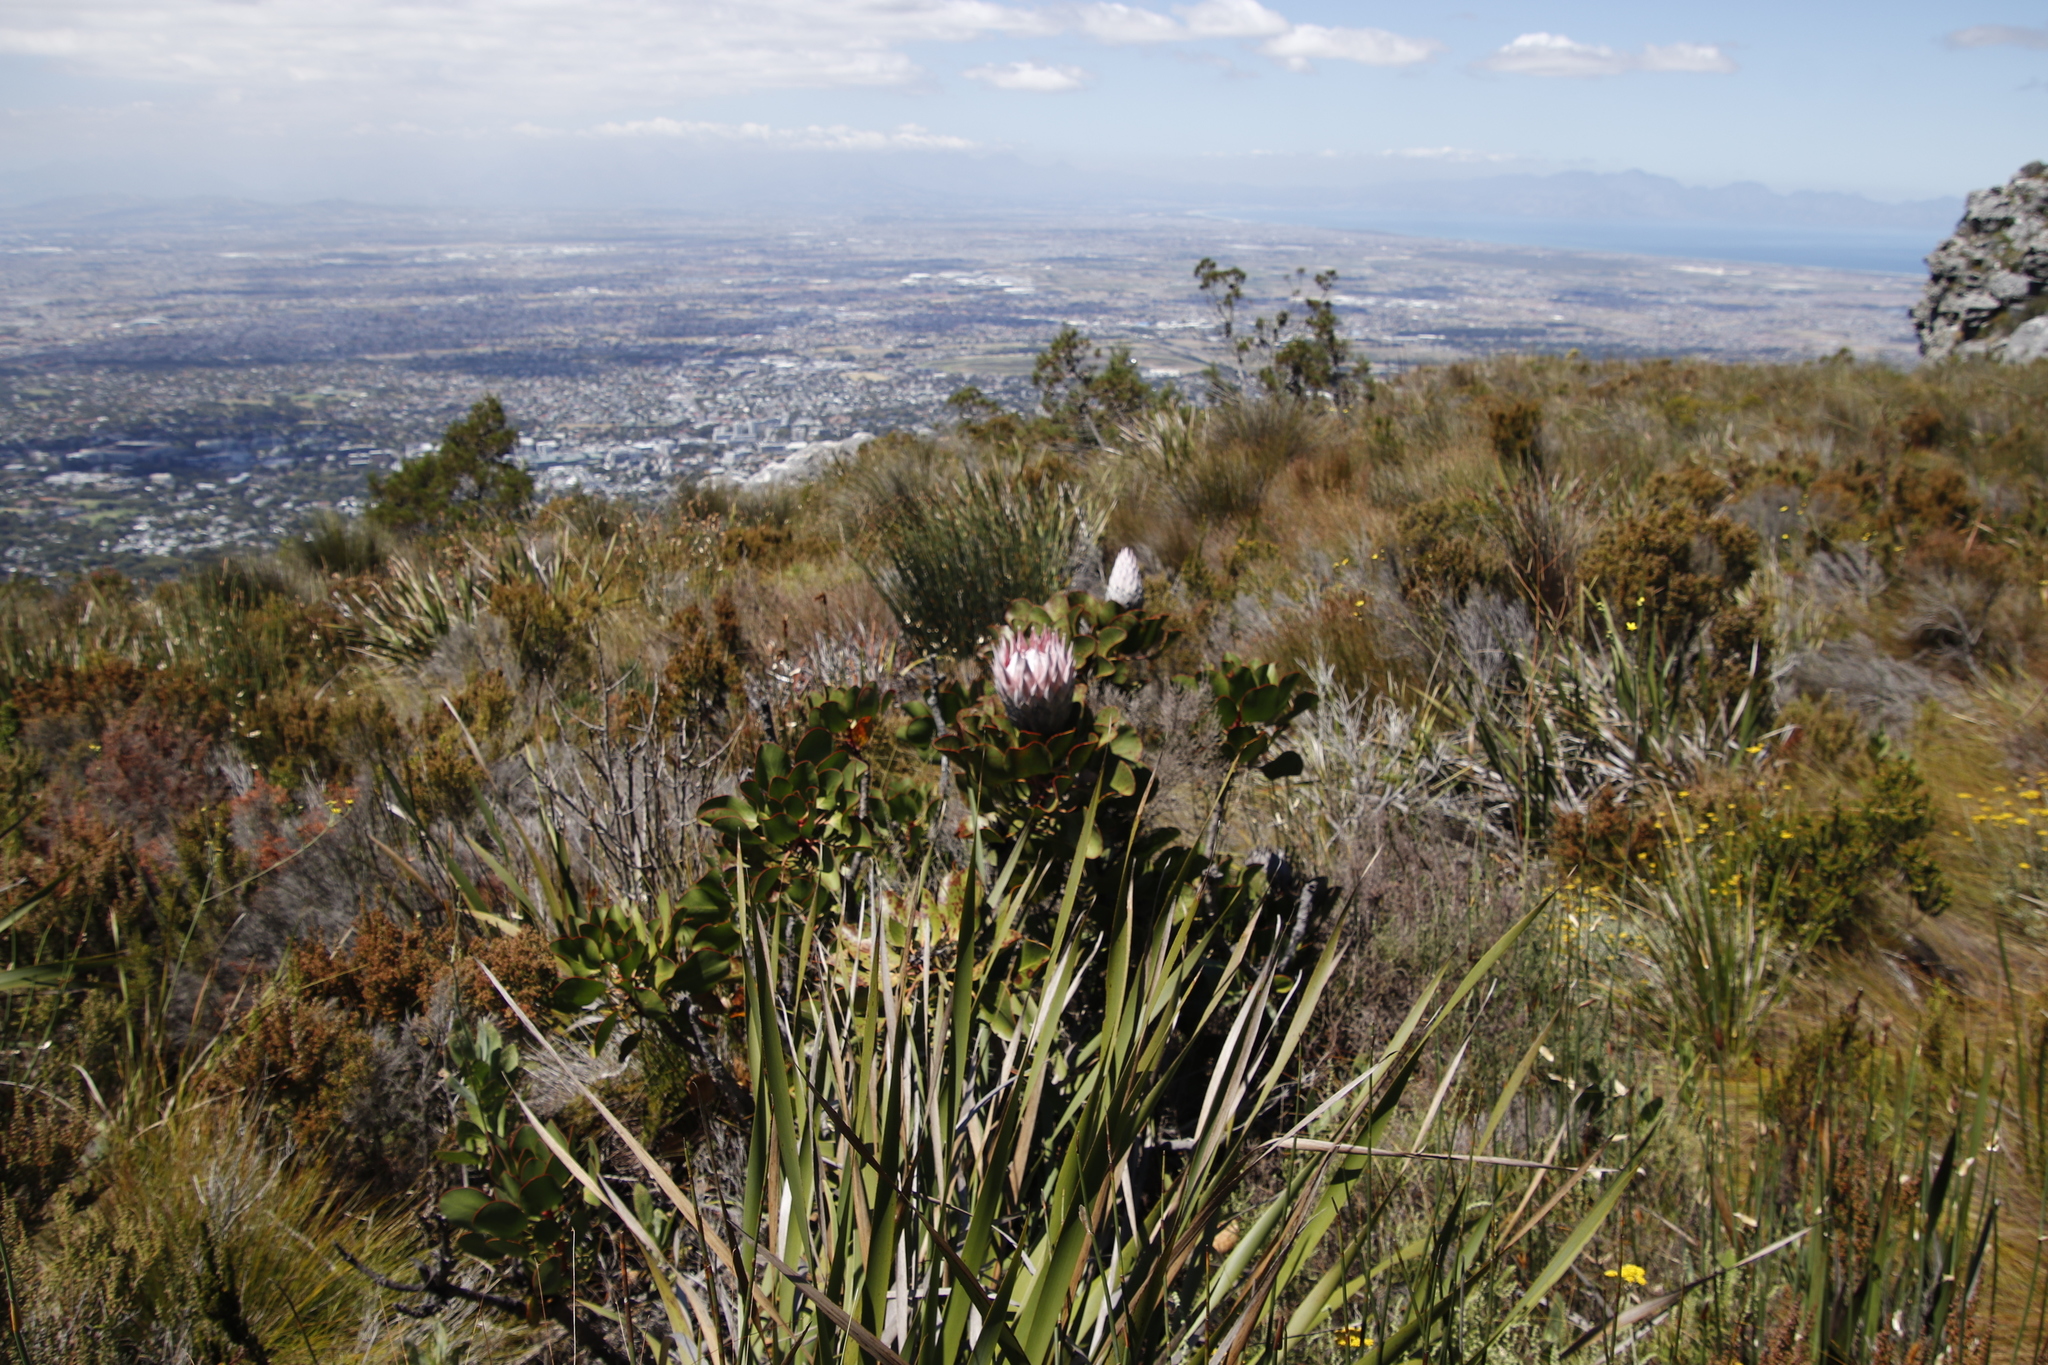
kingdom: Plantae
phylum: Tracheophyta
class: Magnoliopsida
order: Proteales
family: Proteaceae
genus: Protea
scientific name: Protea cynaroides
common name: King protea
